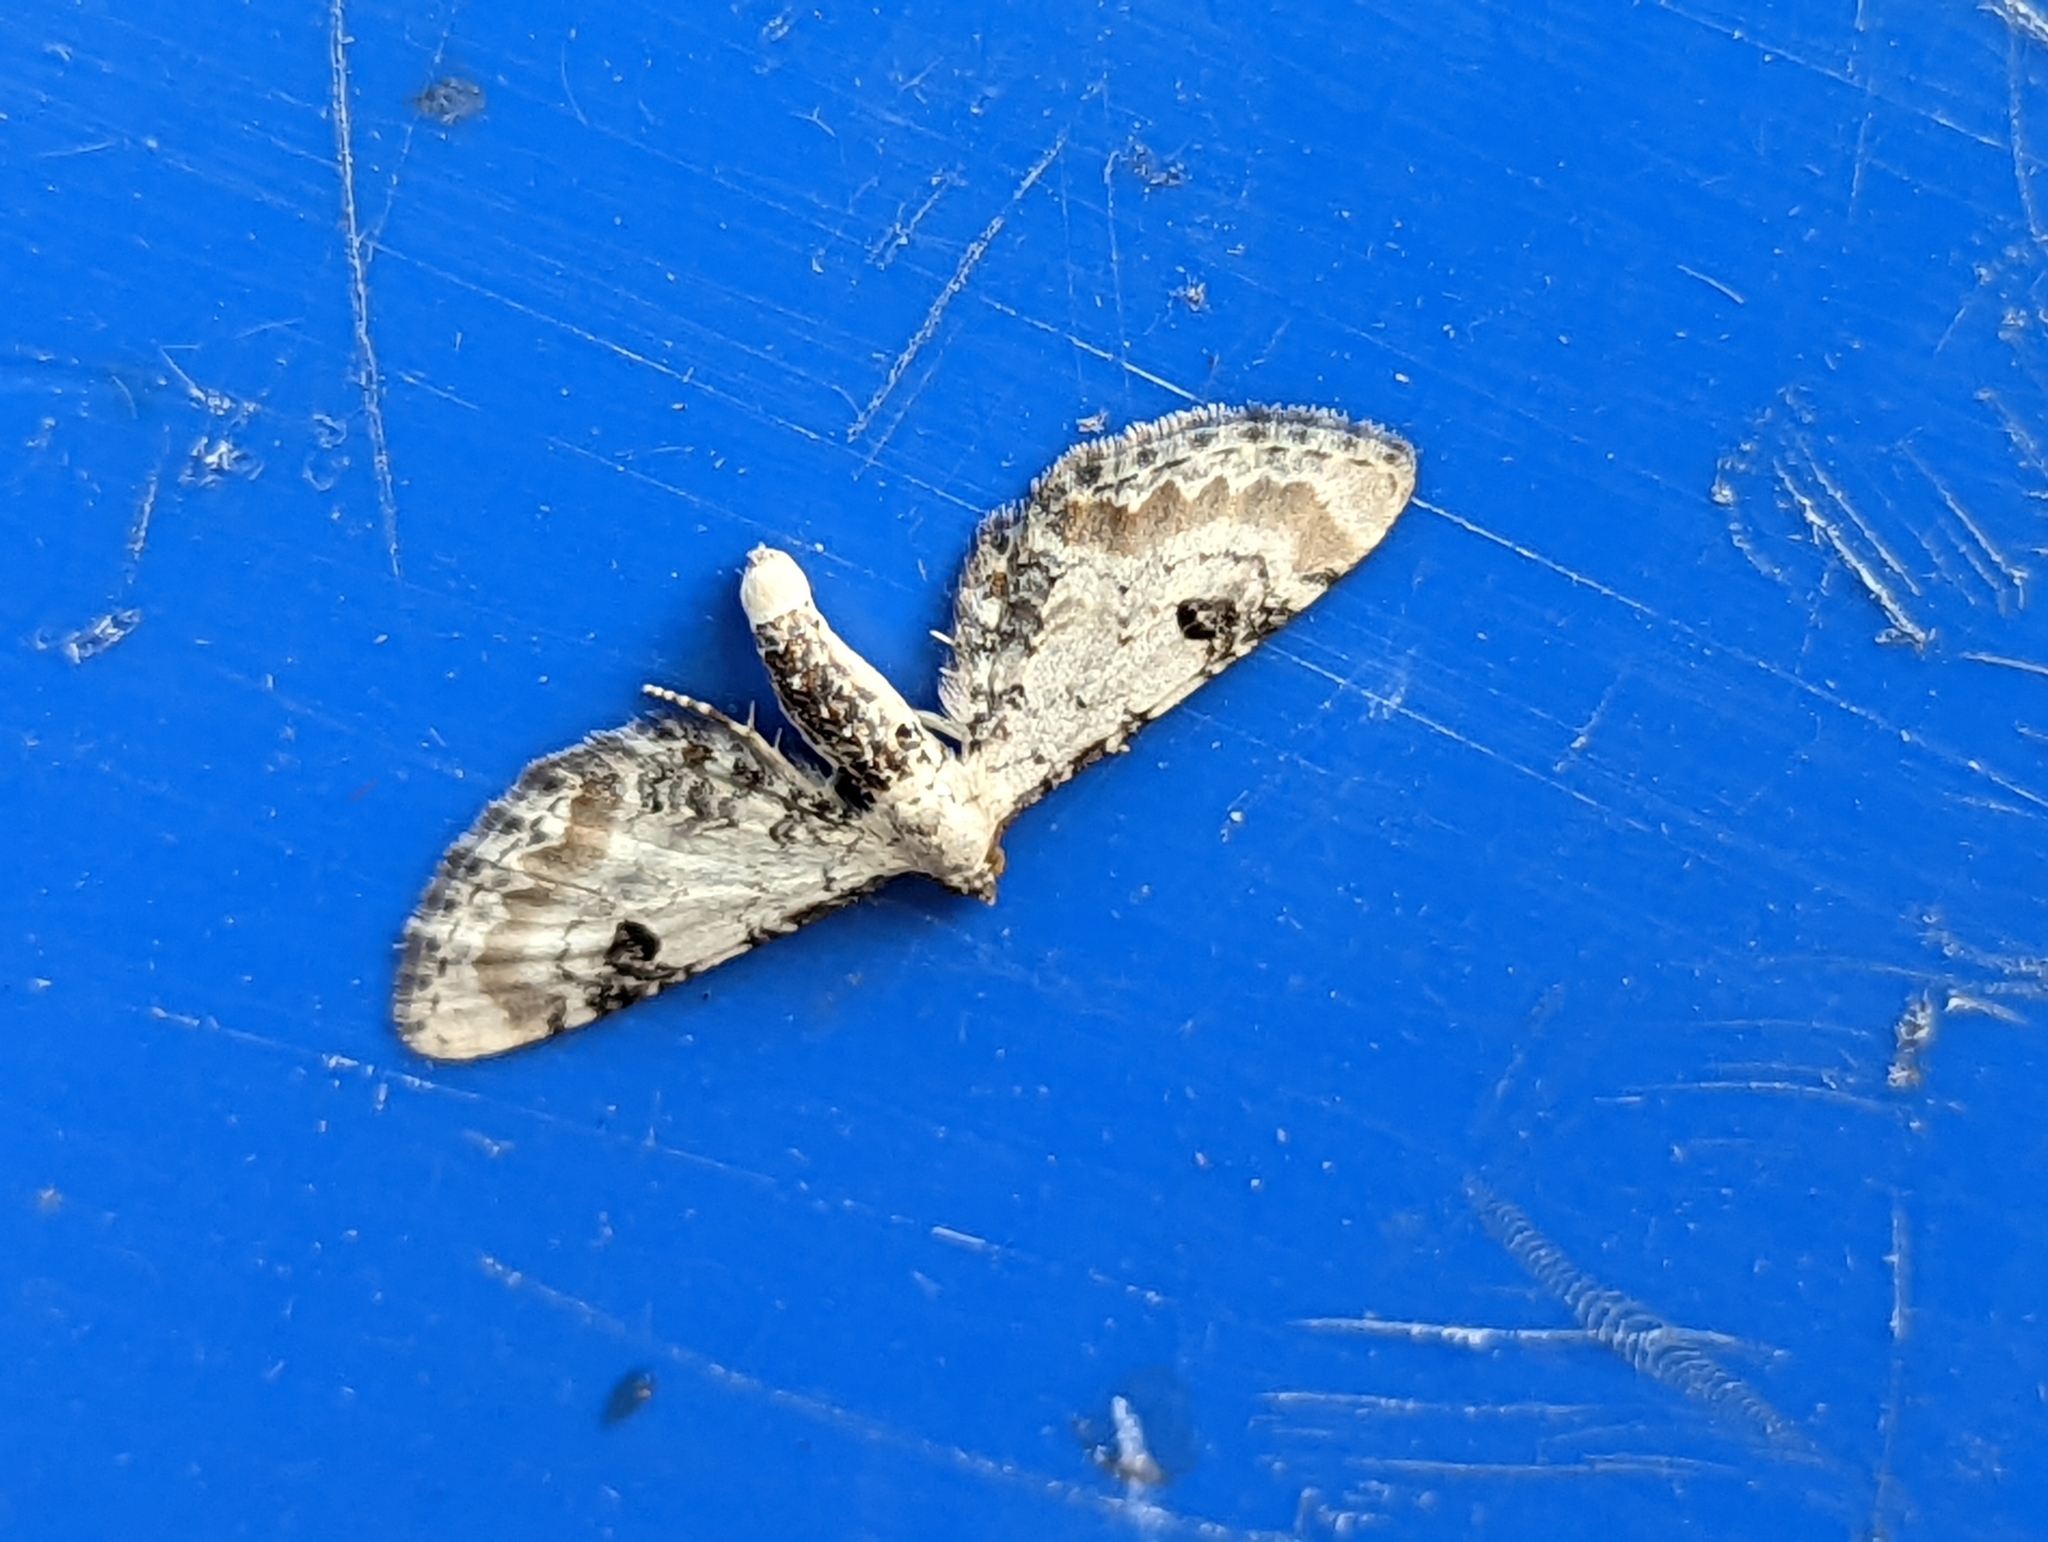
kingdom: Animalia
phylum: Arthropoda
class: Insecta
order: Lepidoptera
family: Geometridae
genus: Eupithecia
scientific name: Eupithecia centaureata
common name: Lime-speck pug
